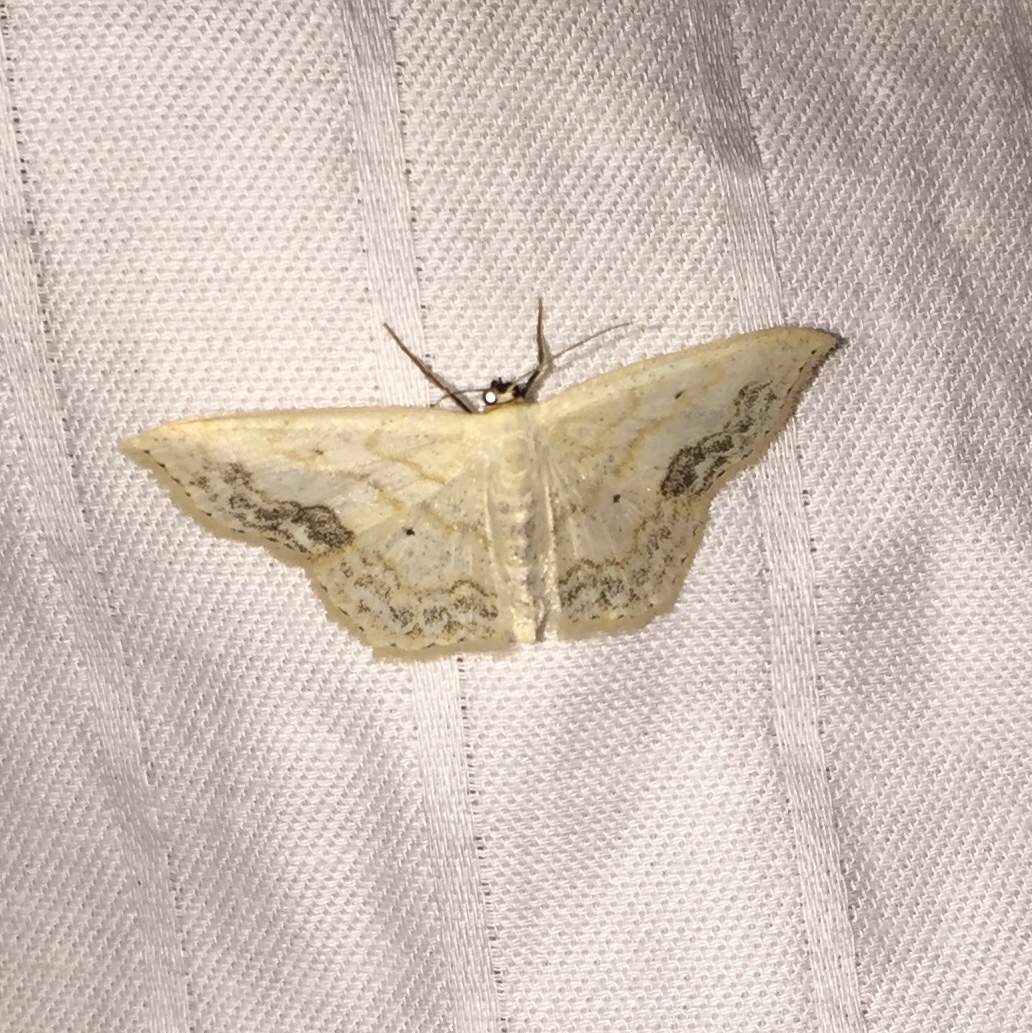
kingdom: Animalia
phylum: Arthropoda
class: Insecta
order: Lepidoptera
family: Geometridae
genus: Scopula
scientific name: Scopula limboundata
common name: Large lace border
